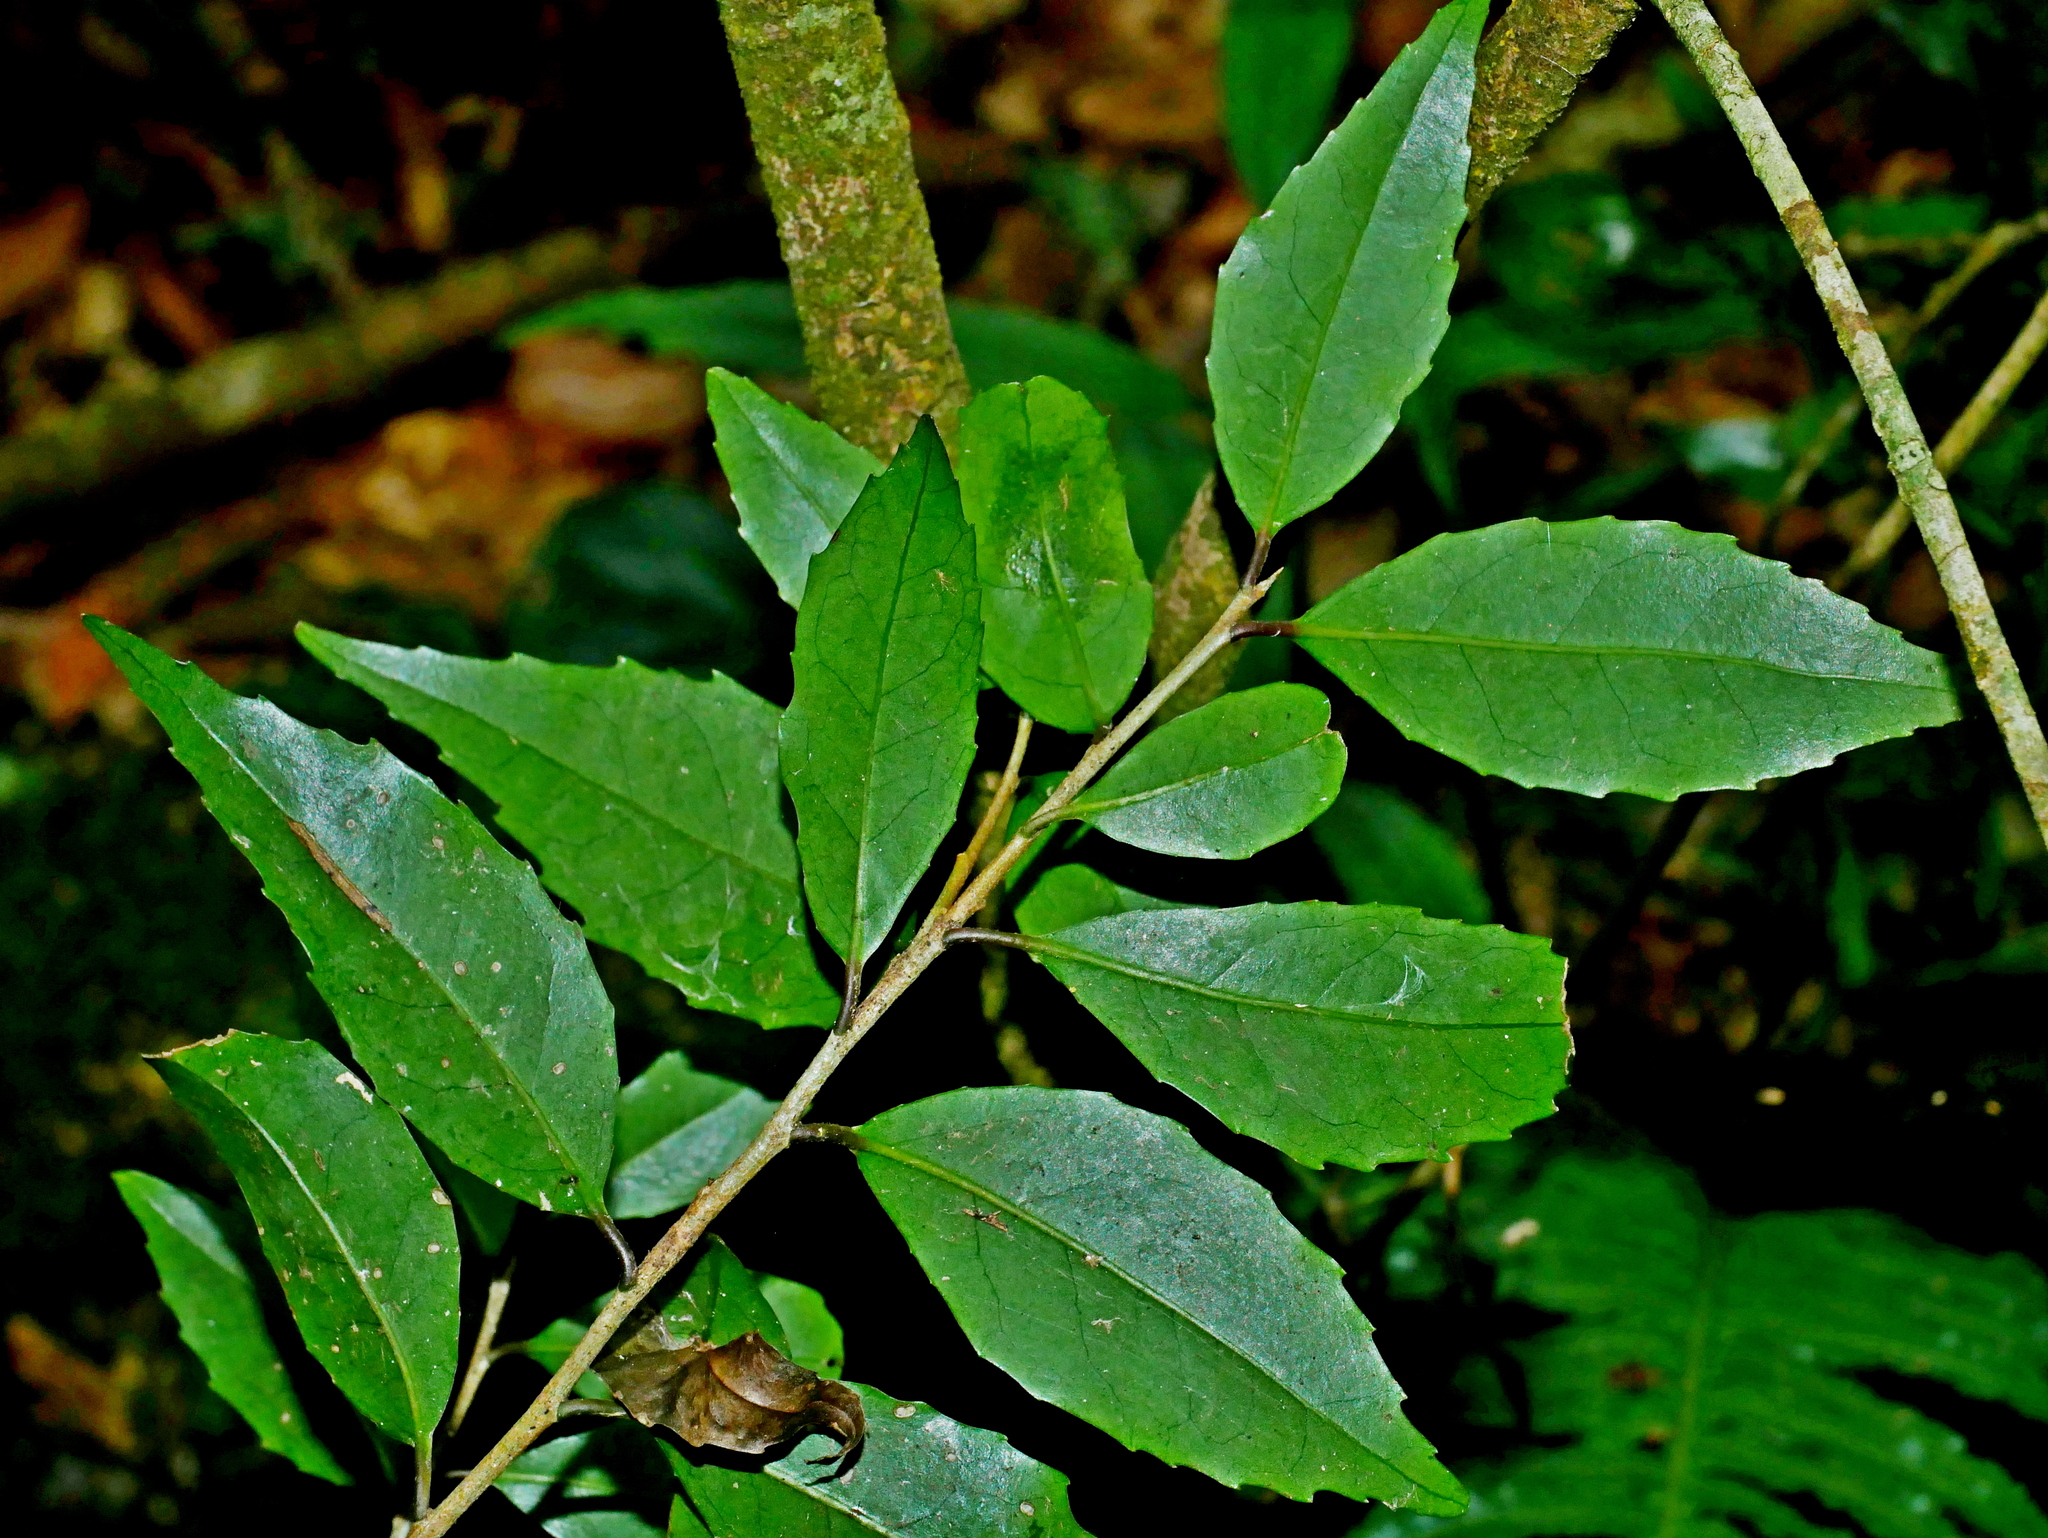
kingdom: Plantae
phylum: Tracheophyta
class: Magnoliopsida
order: Ericales
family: Symplocaceae
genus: Symplocos
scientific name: Symplocos sonoharae
